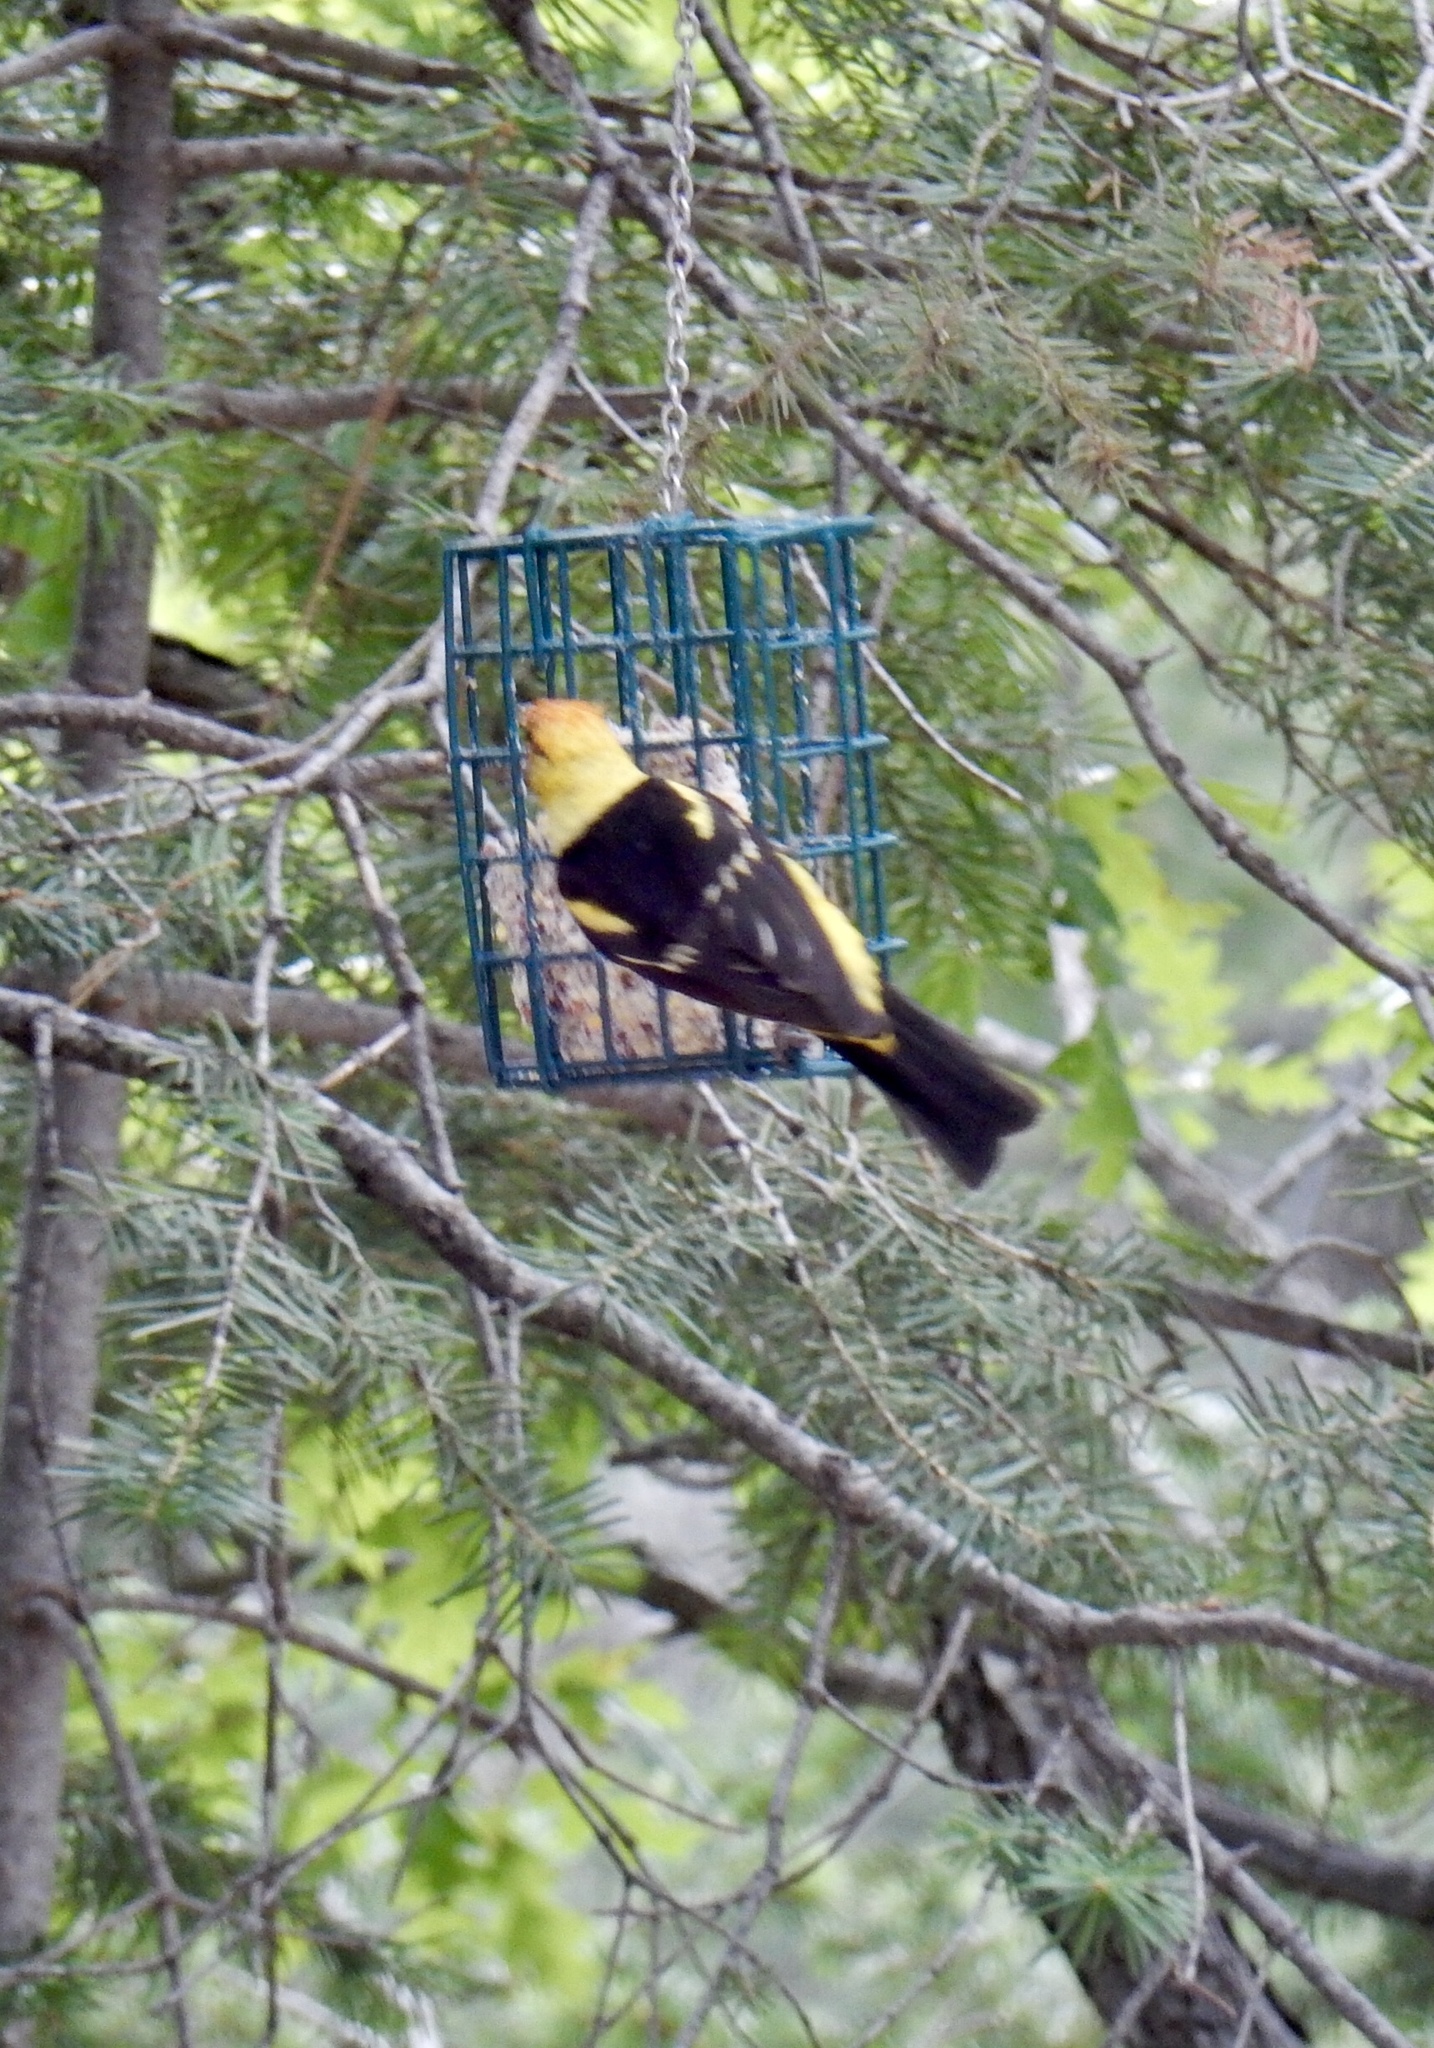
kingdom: Animalia
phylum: Chordata
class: Aves
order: Passeriformes
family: Cardinalidae
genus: Piranga
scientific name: Piranga ludoviciana
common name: Western tanager
